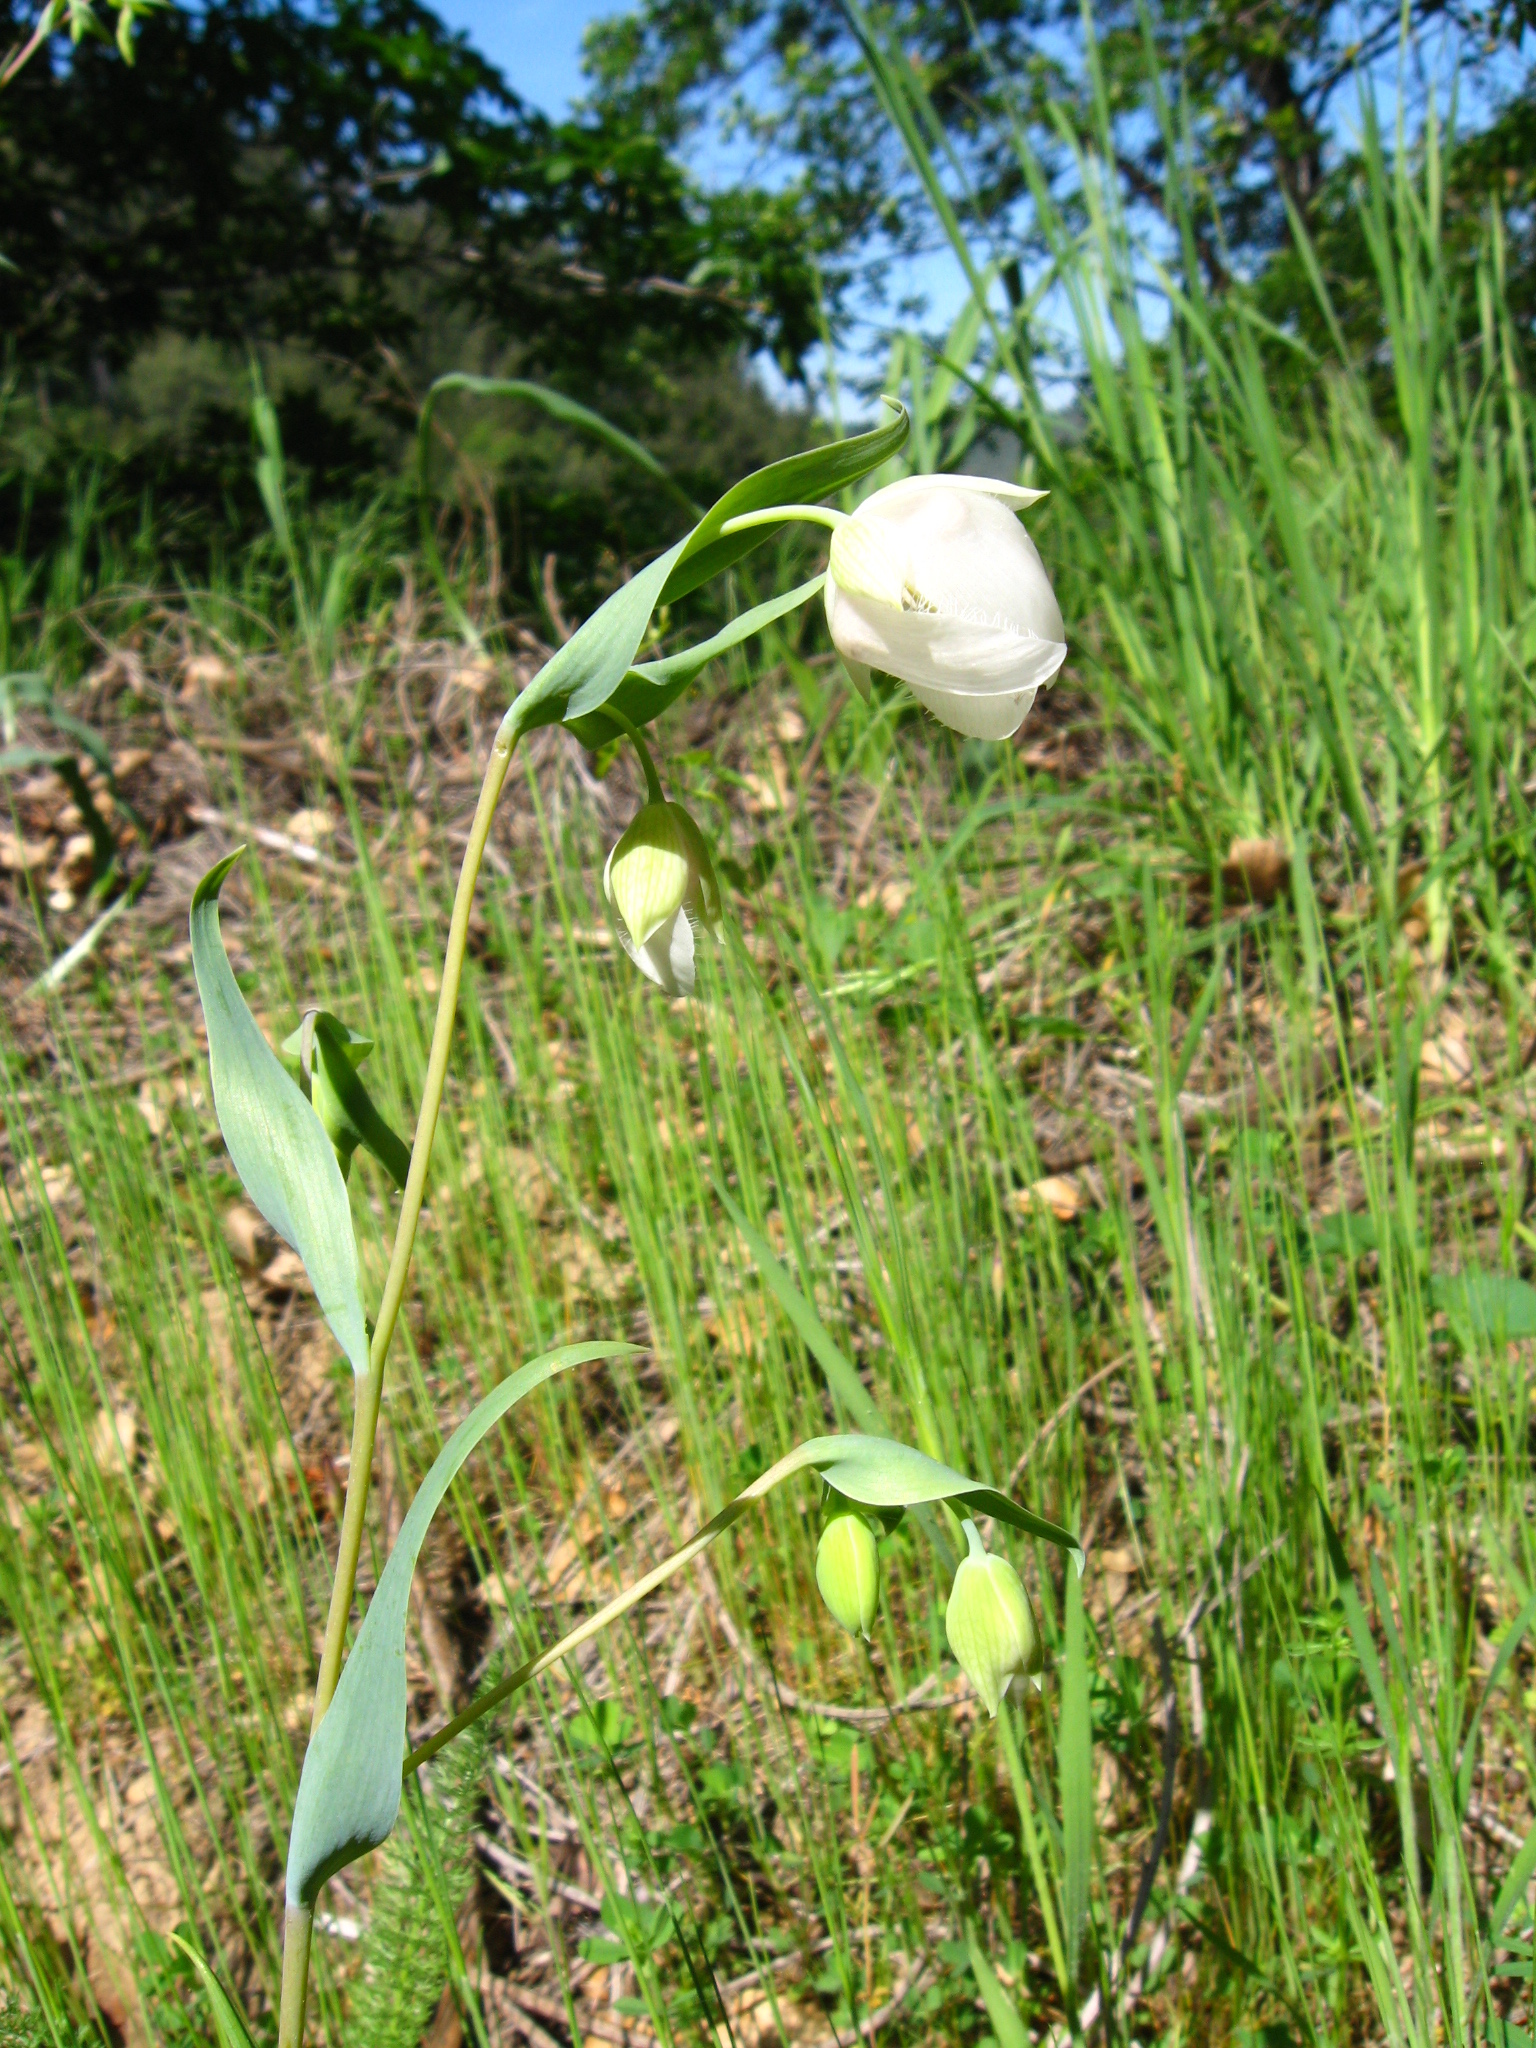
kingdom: Plantae
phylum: Tracheophyta
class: Liliopsida
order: Liliales
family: Liliaceae
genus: Calochortus
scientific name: Calochortus albus
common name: Fairy-lantern
